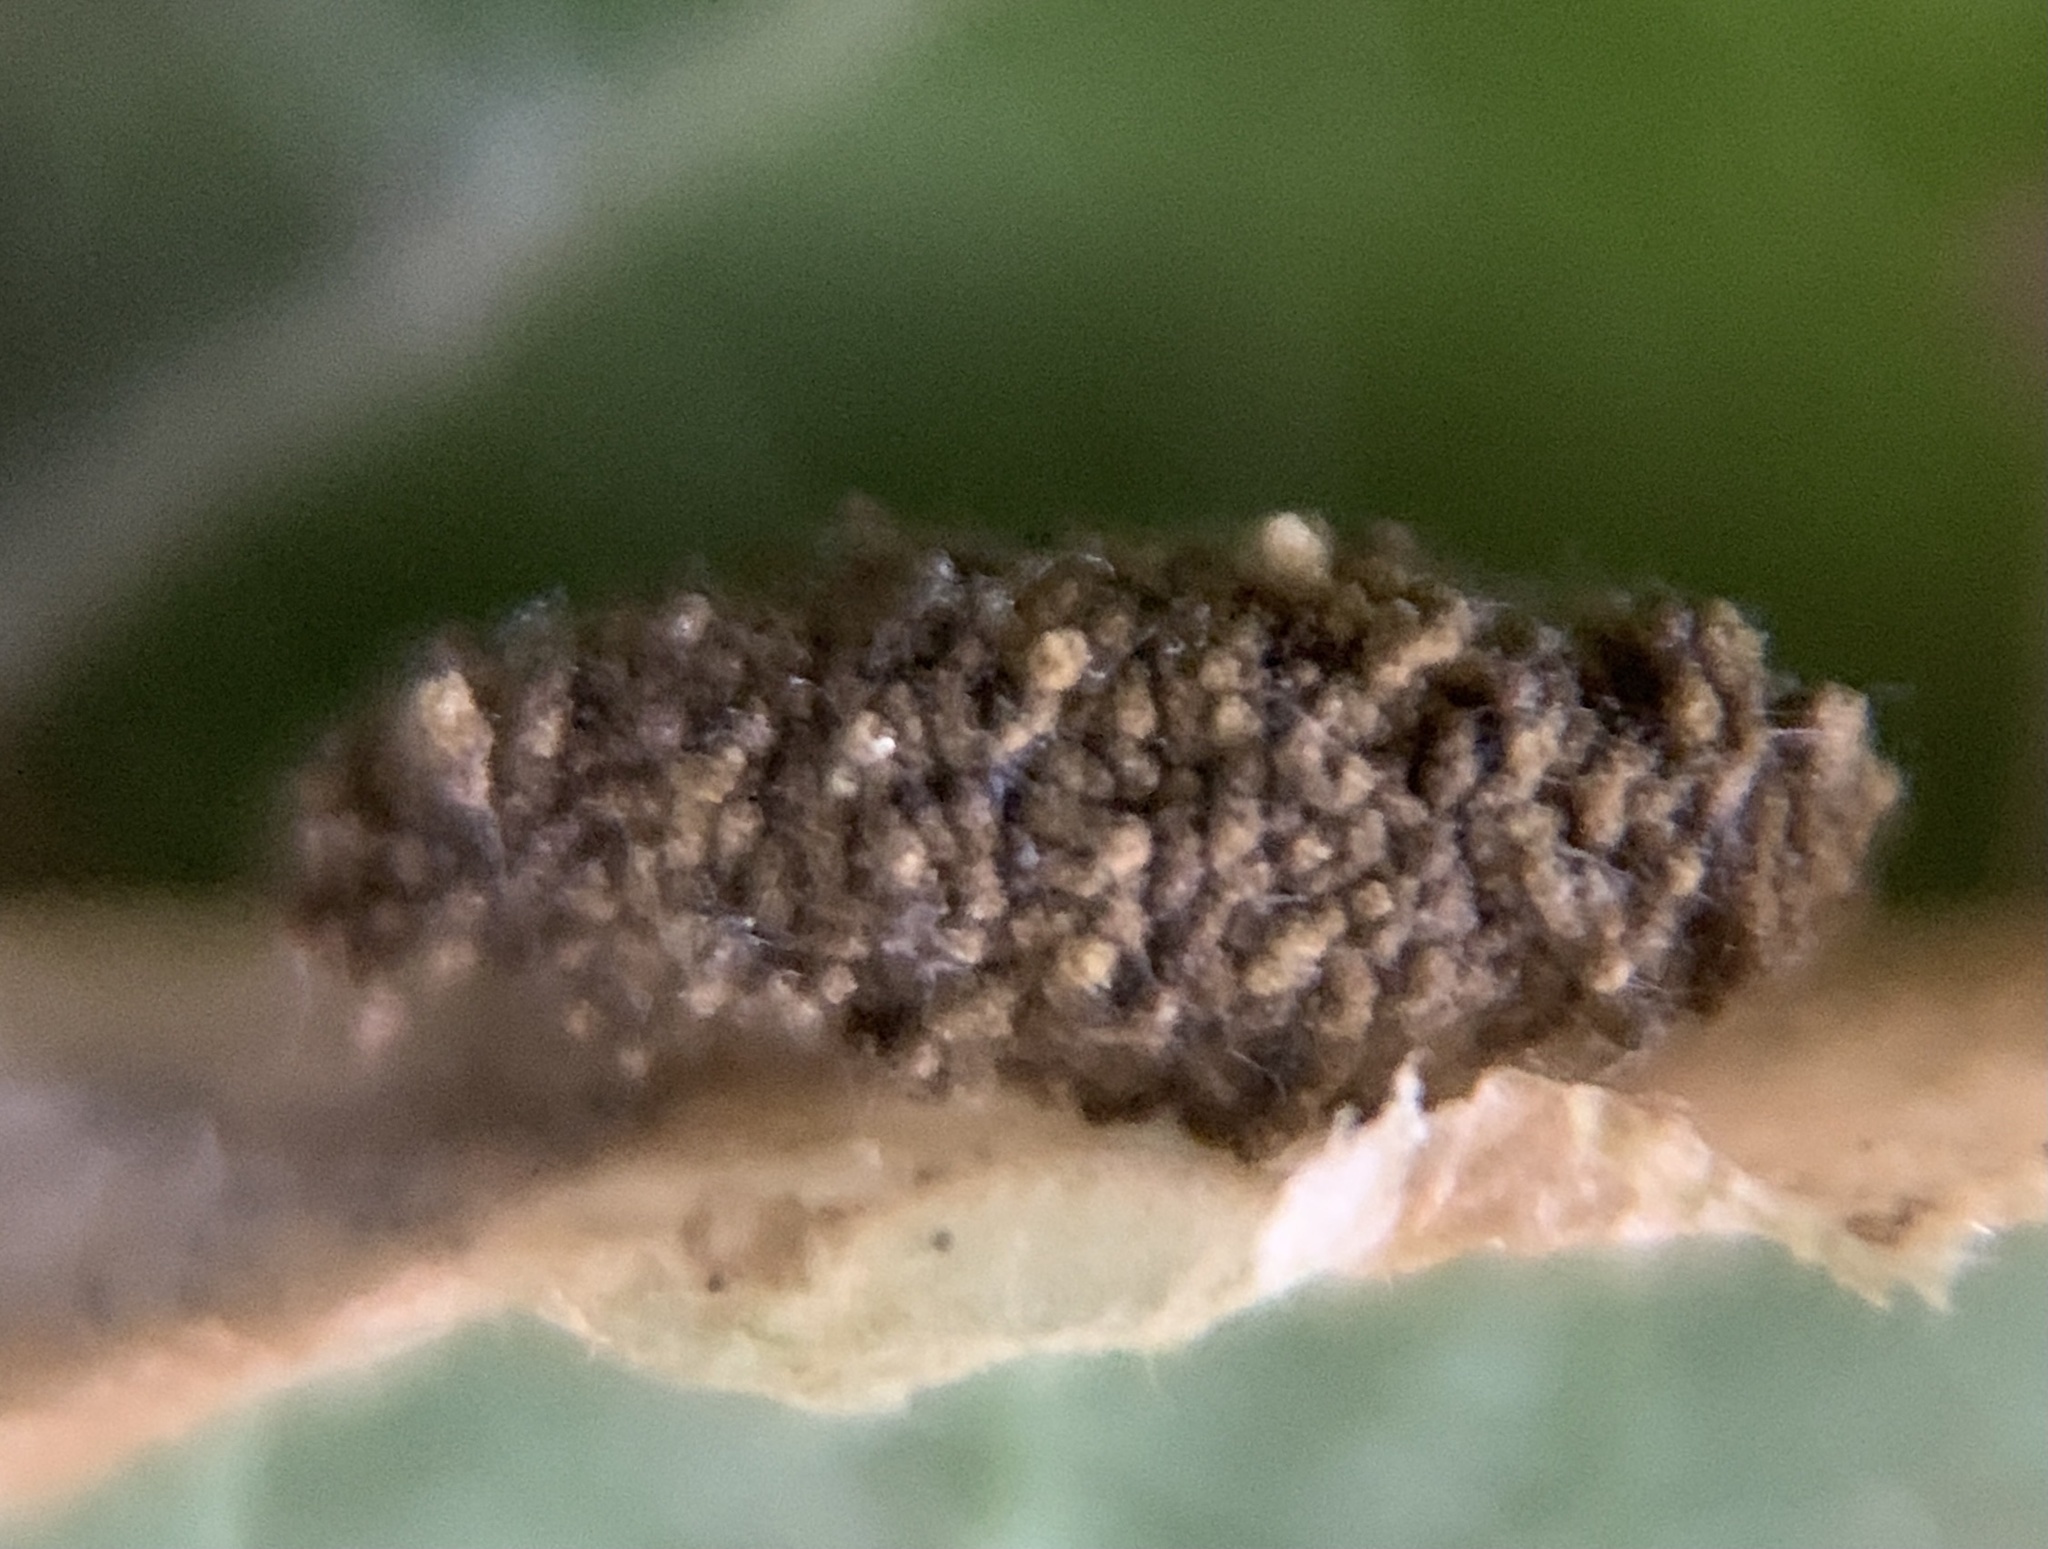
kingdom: Animalia
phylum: Arthropoda
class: Insecta
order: Lepidoptera
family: Gracillariidae
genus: Phyllonorycter
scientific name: Phyllonorycter ostryaefoliella
